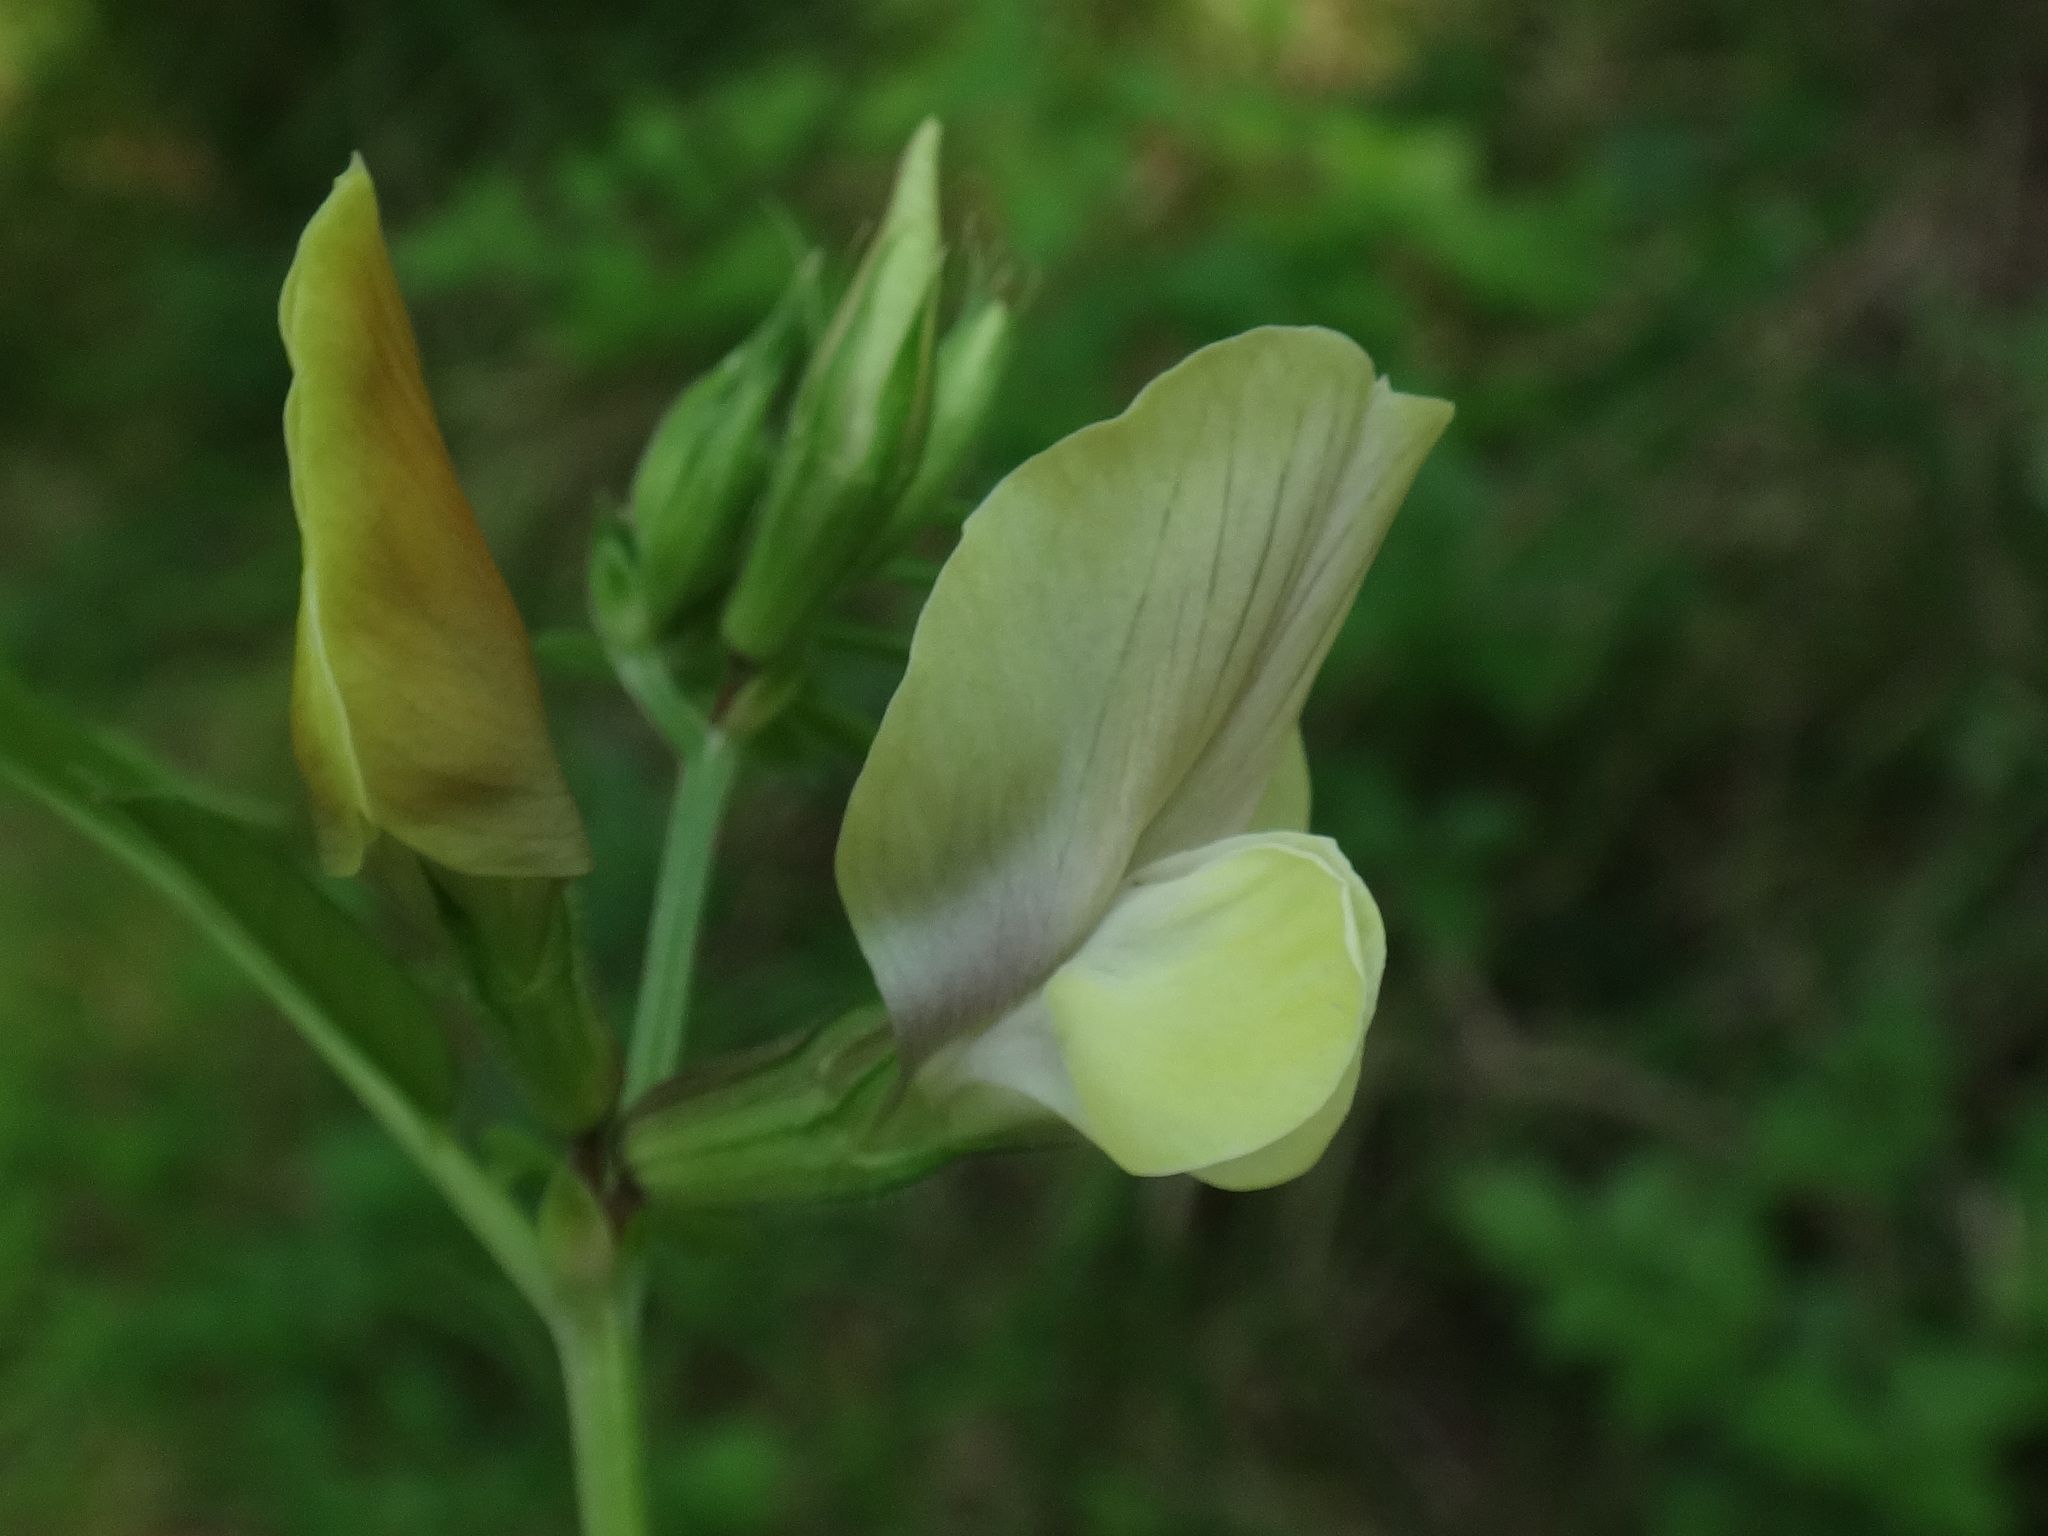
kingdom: Plantae
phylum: Tracheophyta
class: Magnoliopsida
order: Fabales
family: Fabaceae
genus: Vicia
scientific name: Vicia grandiflora
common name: Large yellow vetch
